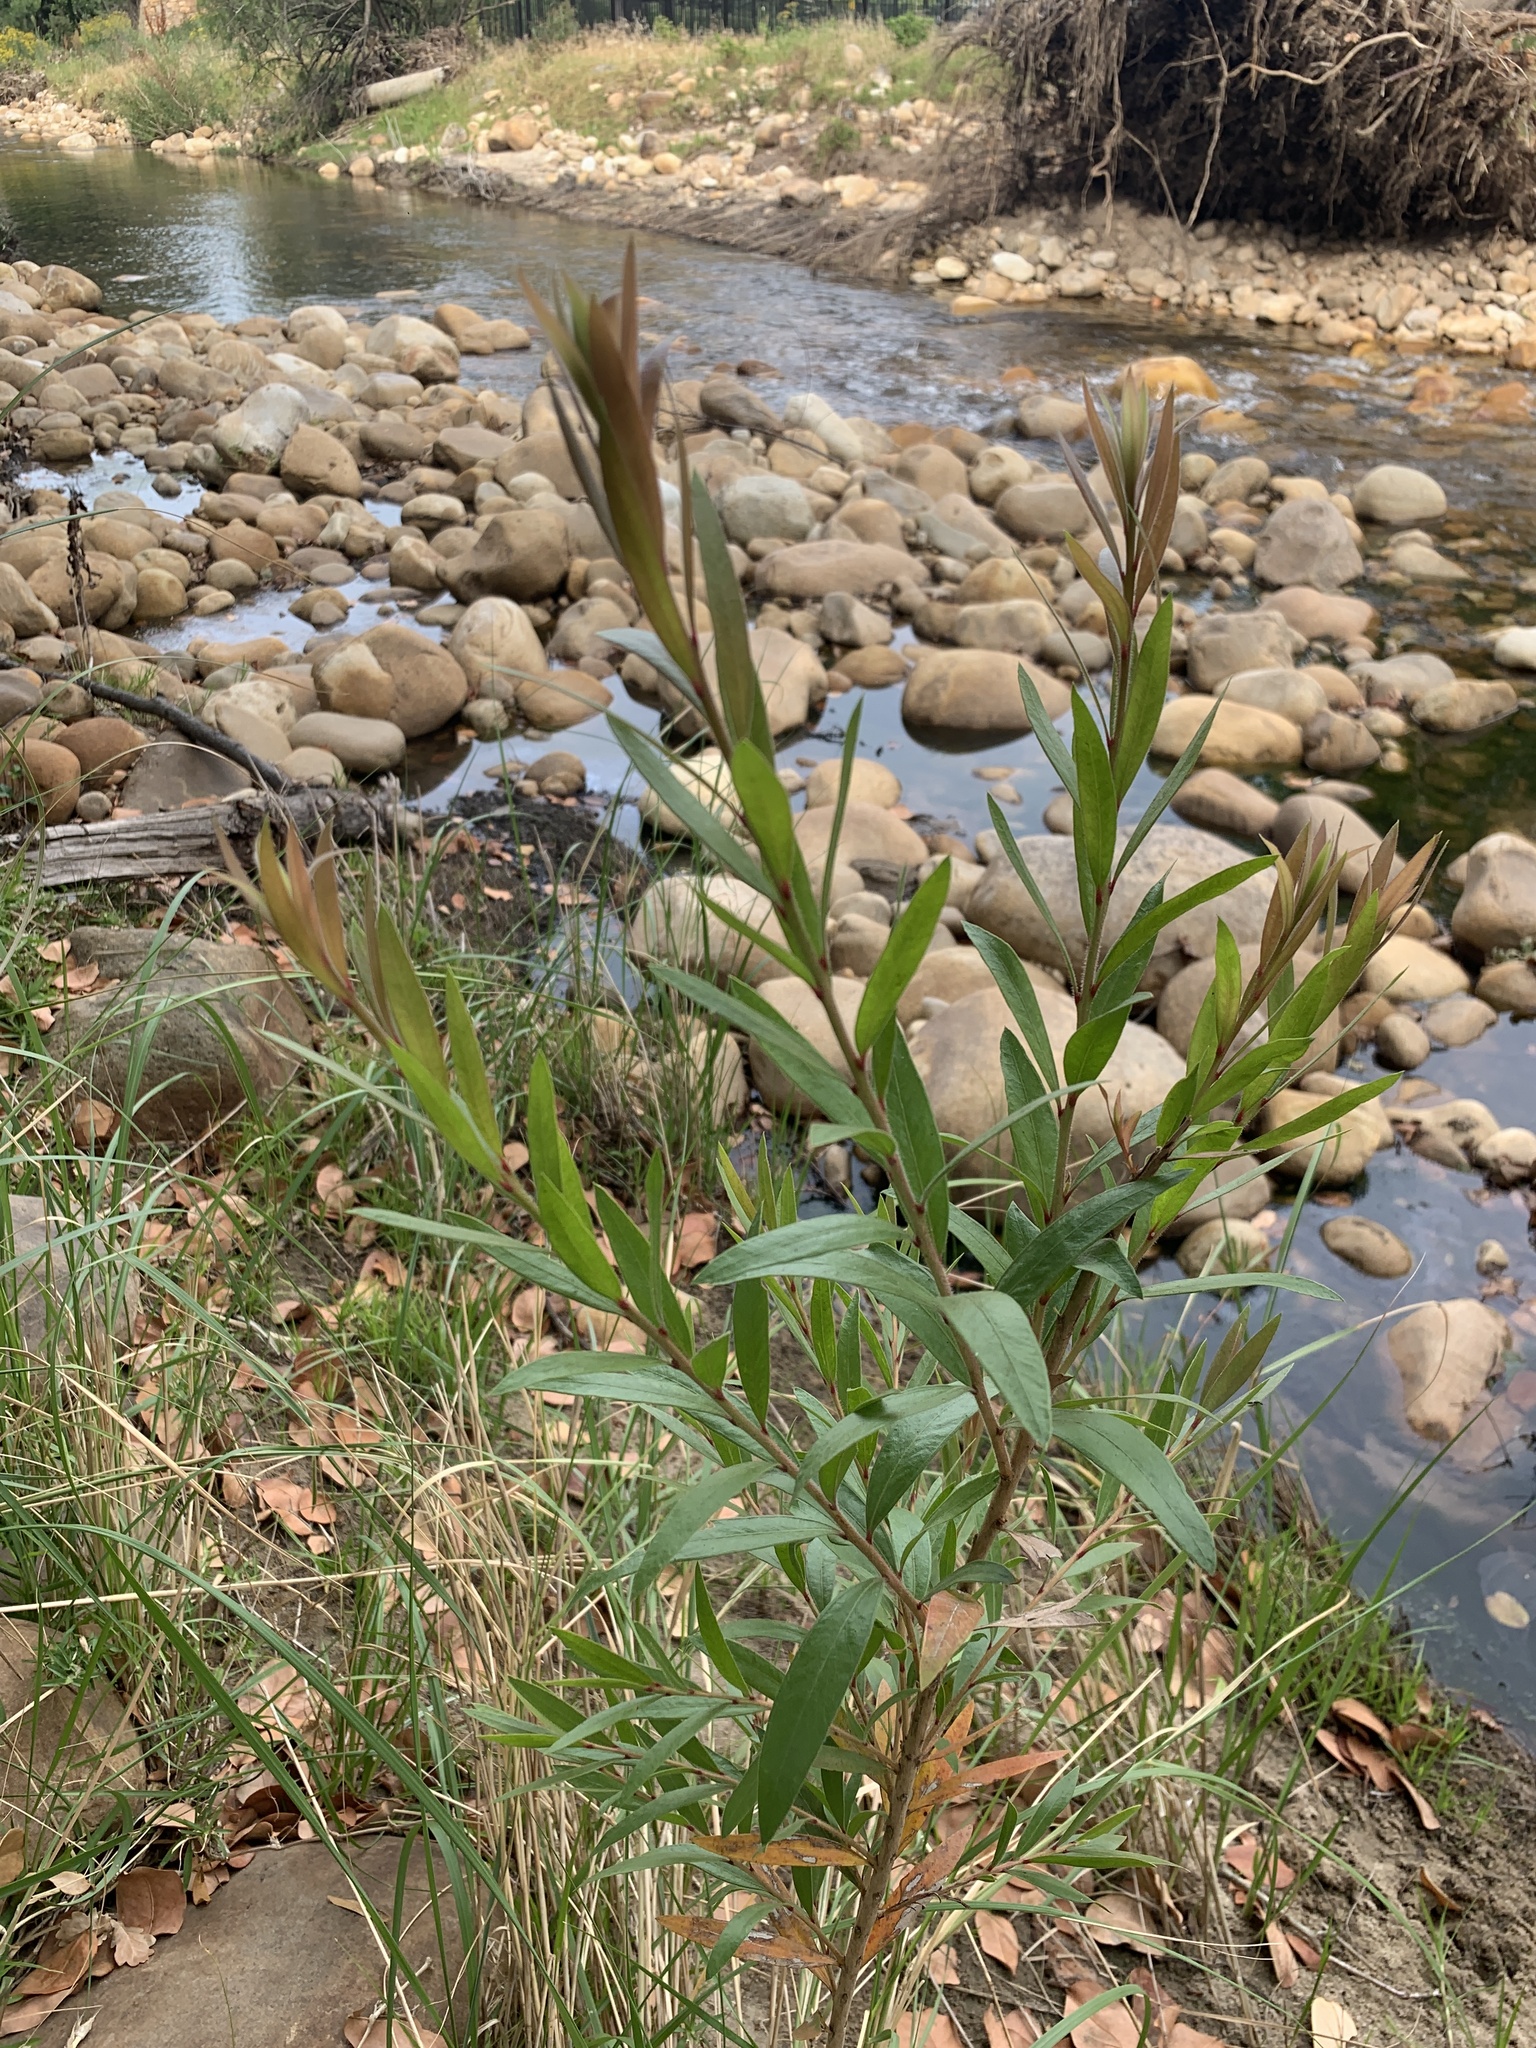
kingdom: Plantae
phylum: Tracheophyta
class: Magnoliopsida
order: Myrtales
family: Myrtaceae
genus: Callistemon
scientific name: Callistemon viminalis
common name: Drooping bottlebrush
